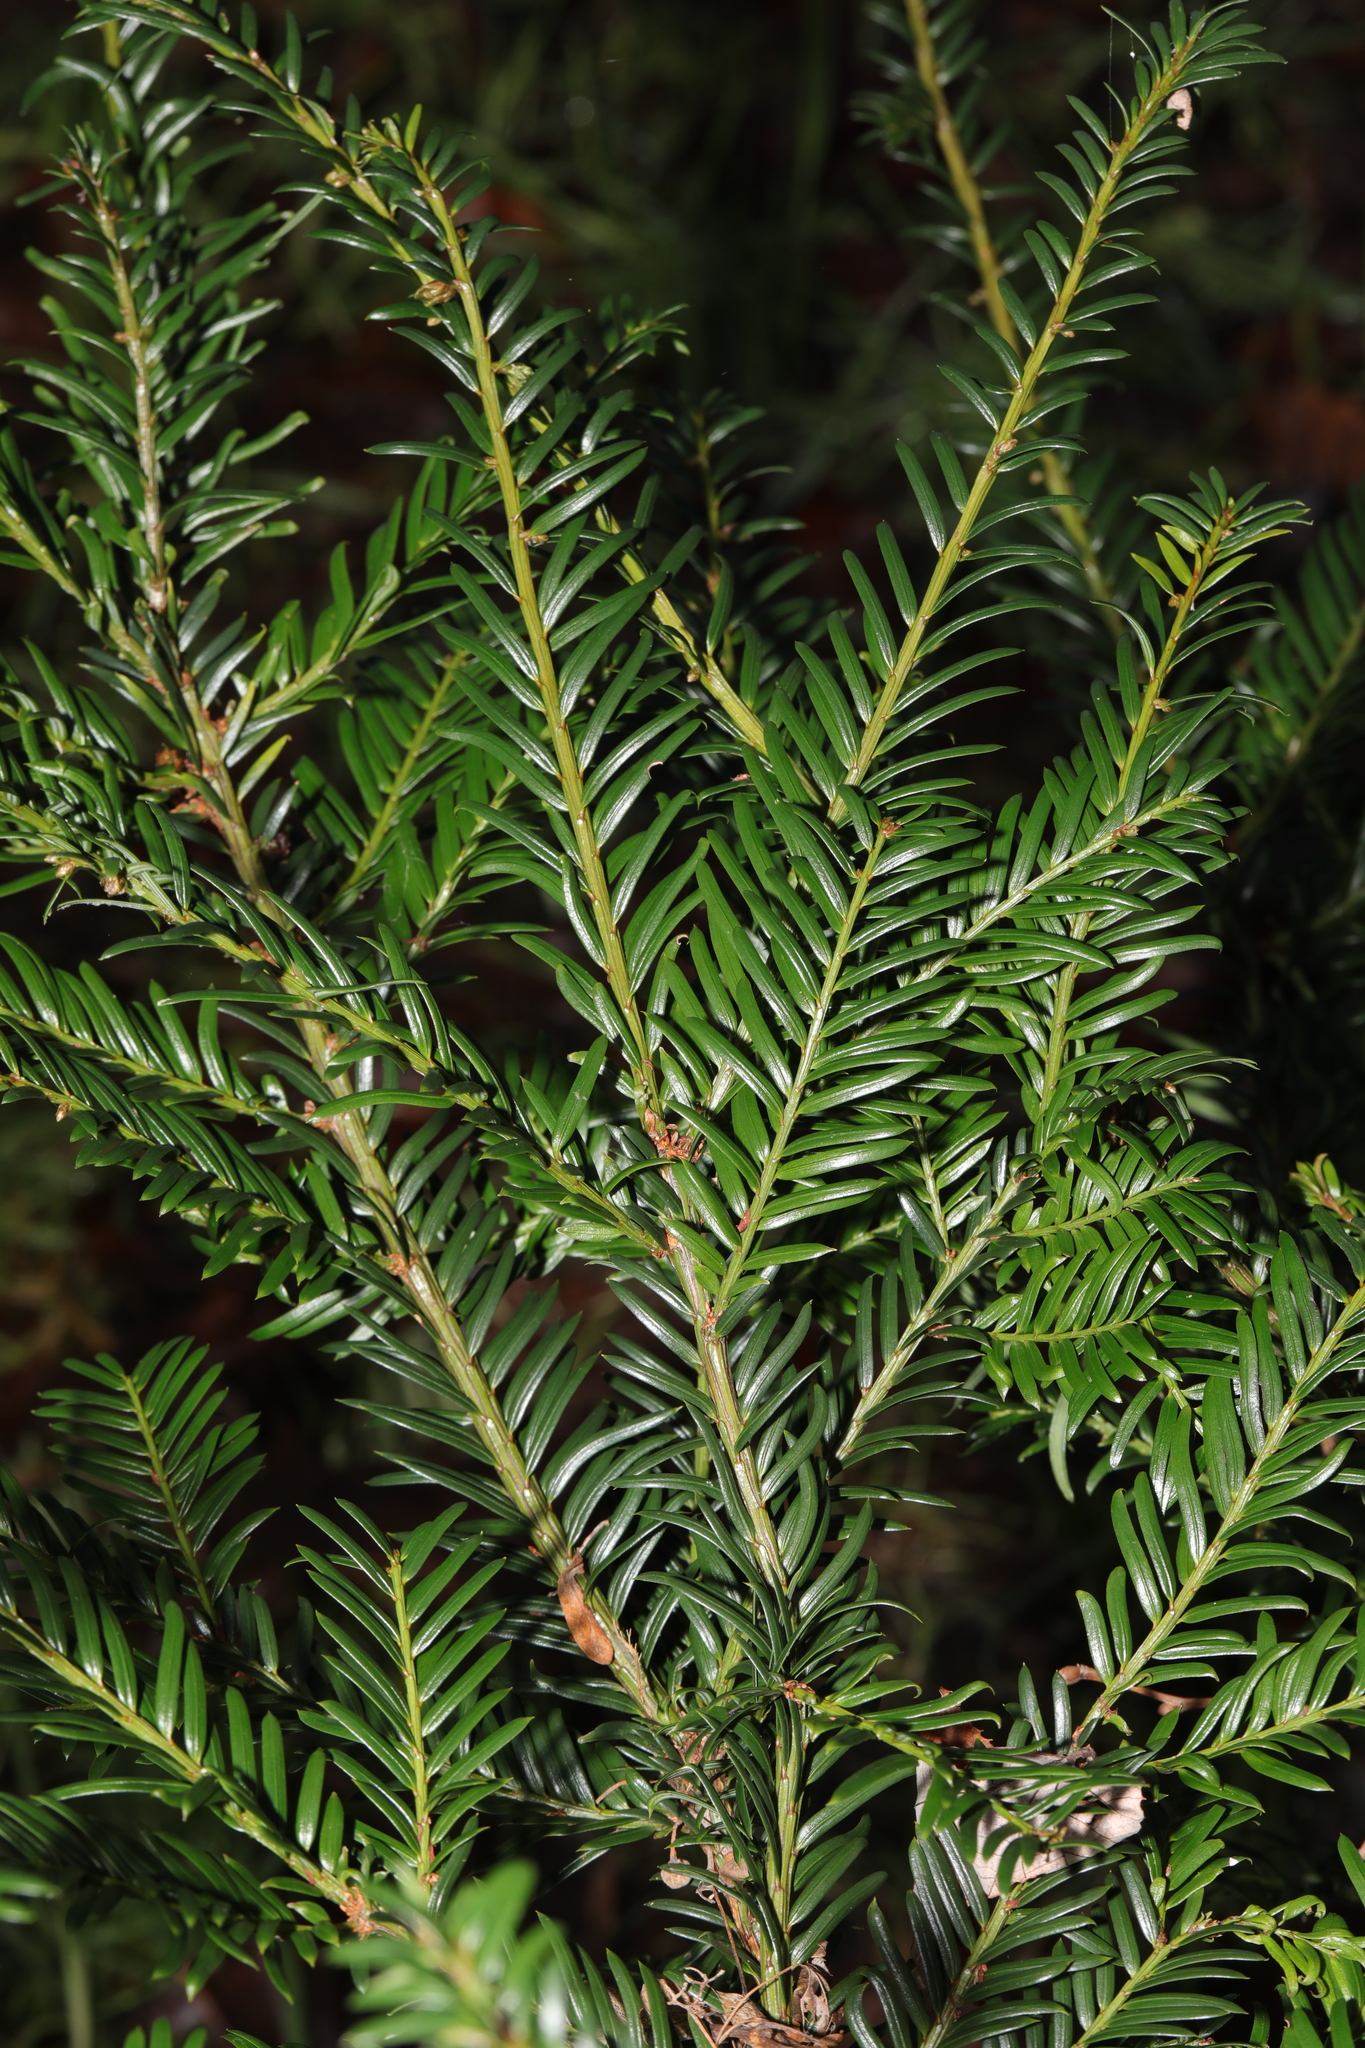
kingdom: Plantae
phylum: Tracheophyta
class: Pinopsida
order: Pinales
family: Taxaceae
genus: Taxus
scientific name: Taxus baccata
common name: Yew
